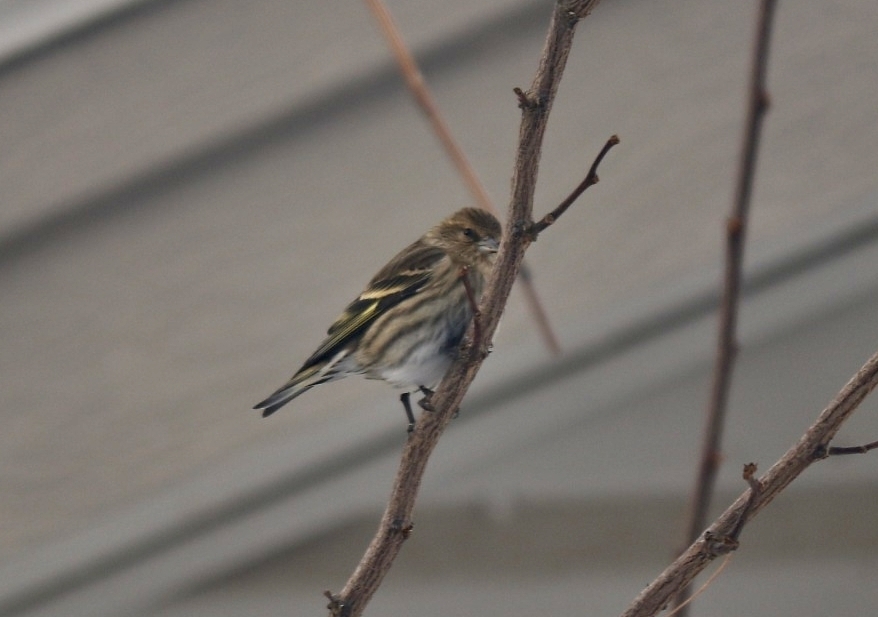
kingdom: Animalia
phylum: Chordata
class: Aves
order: Passeriformes
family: Fringillidae
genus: Spinus
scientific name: Spinus pinus
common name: Pine siskin
